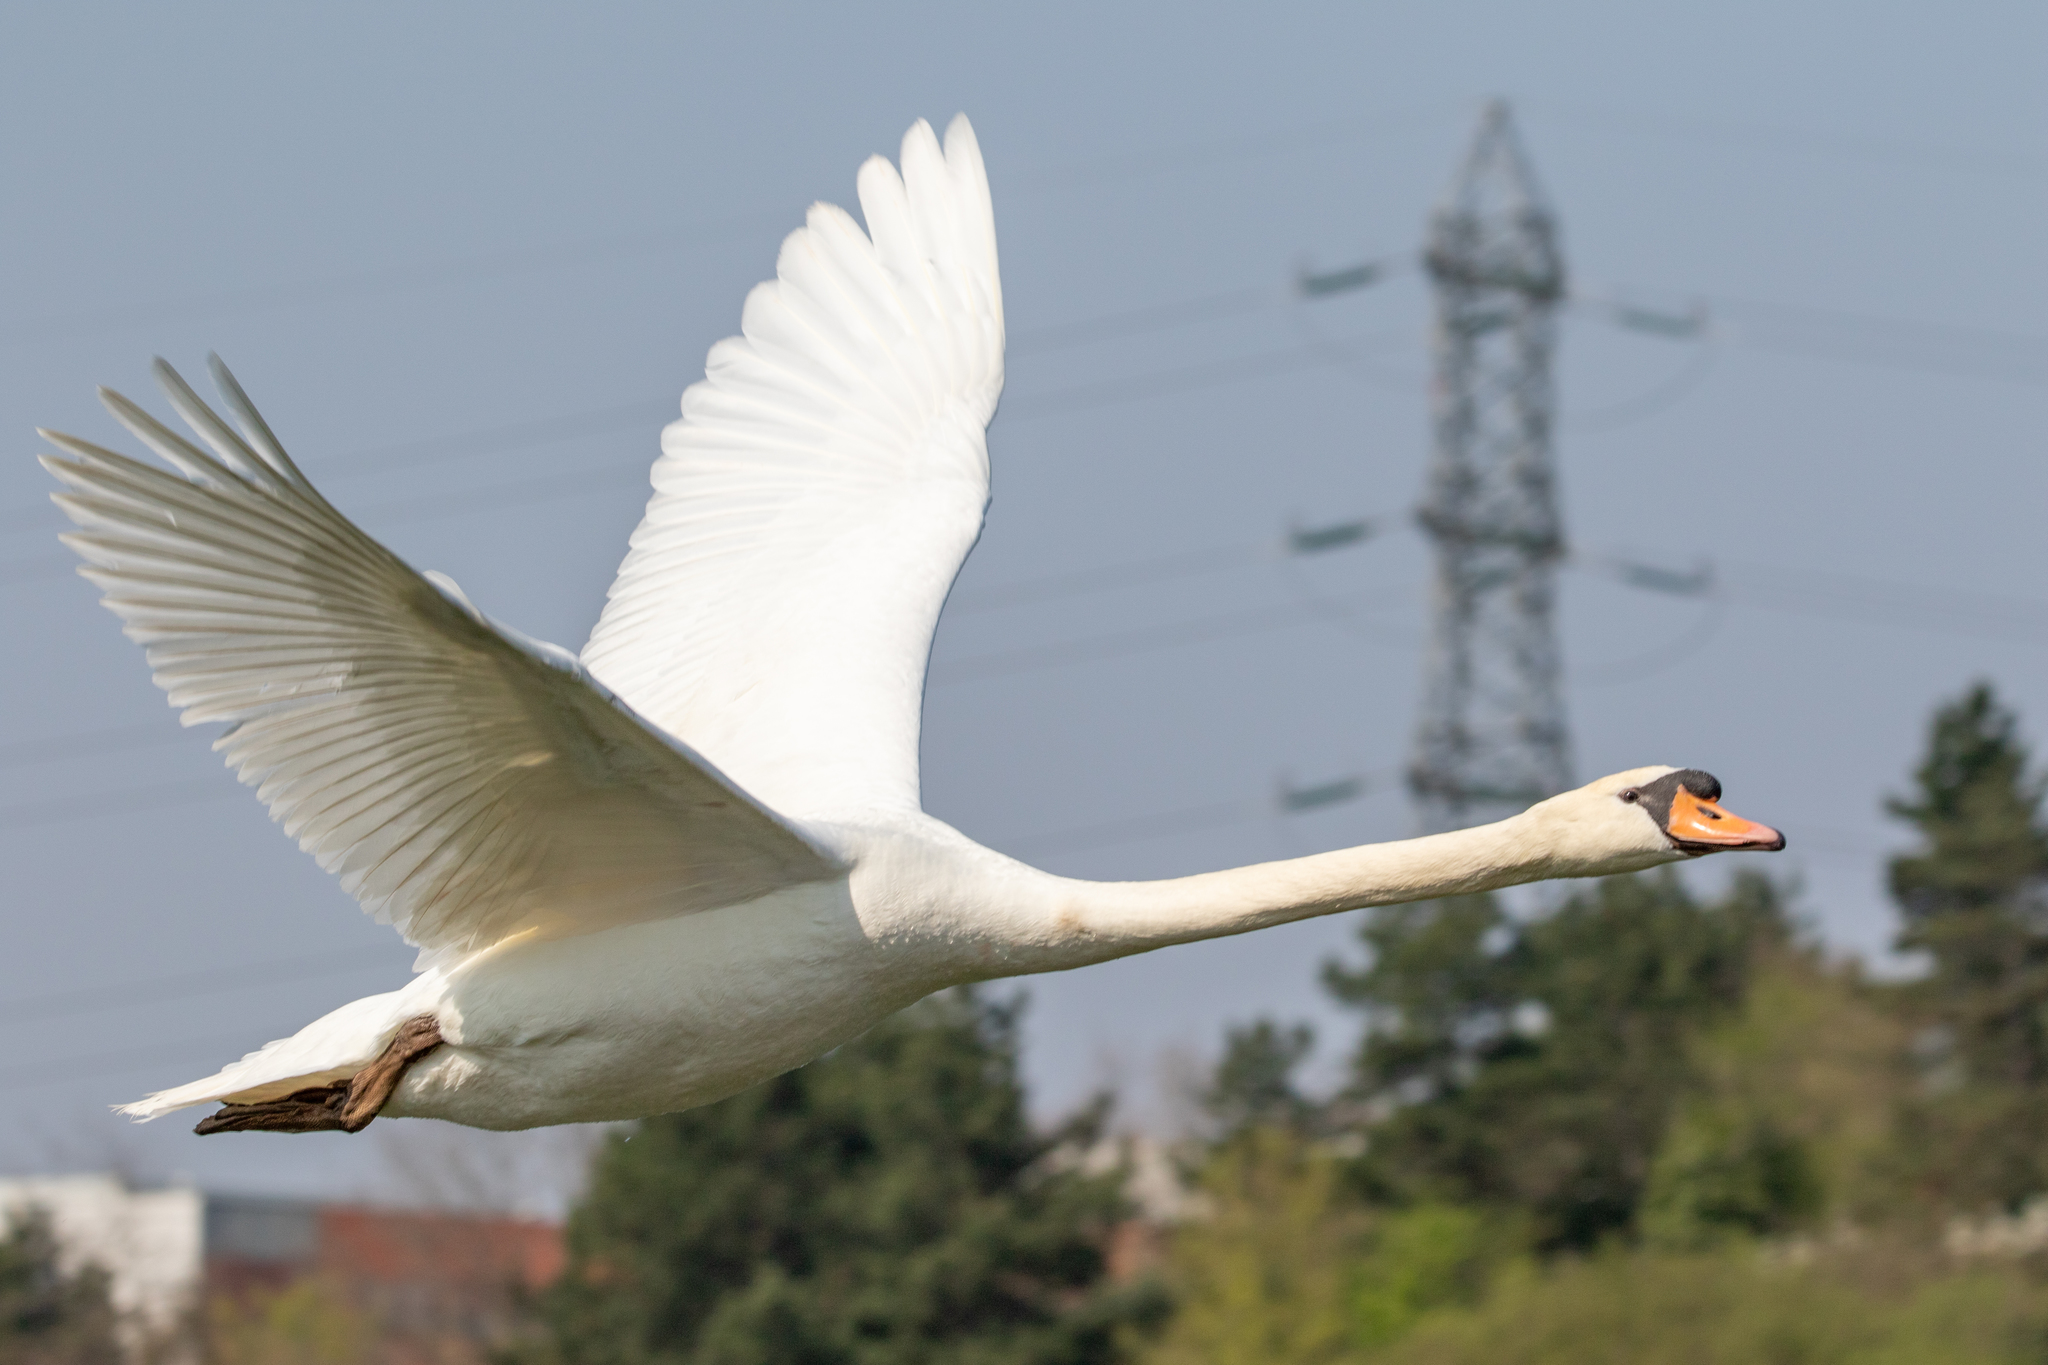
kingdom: Animalia
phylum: Chordata
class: Aves
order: Anseriformes
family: Anatidae
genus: Cygnus
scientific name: Cygnus olor
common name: Mute swan
